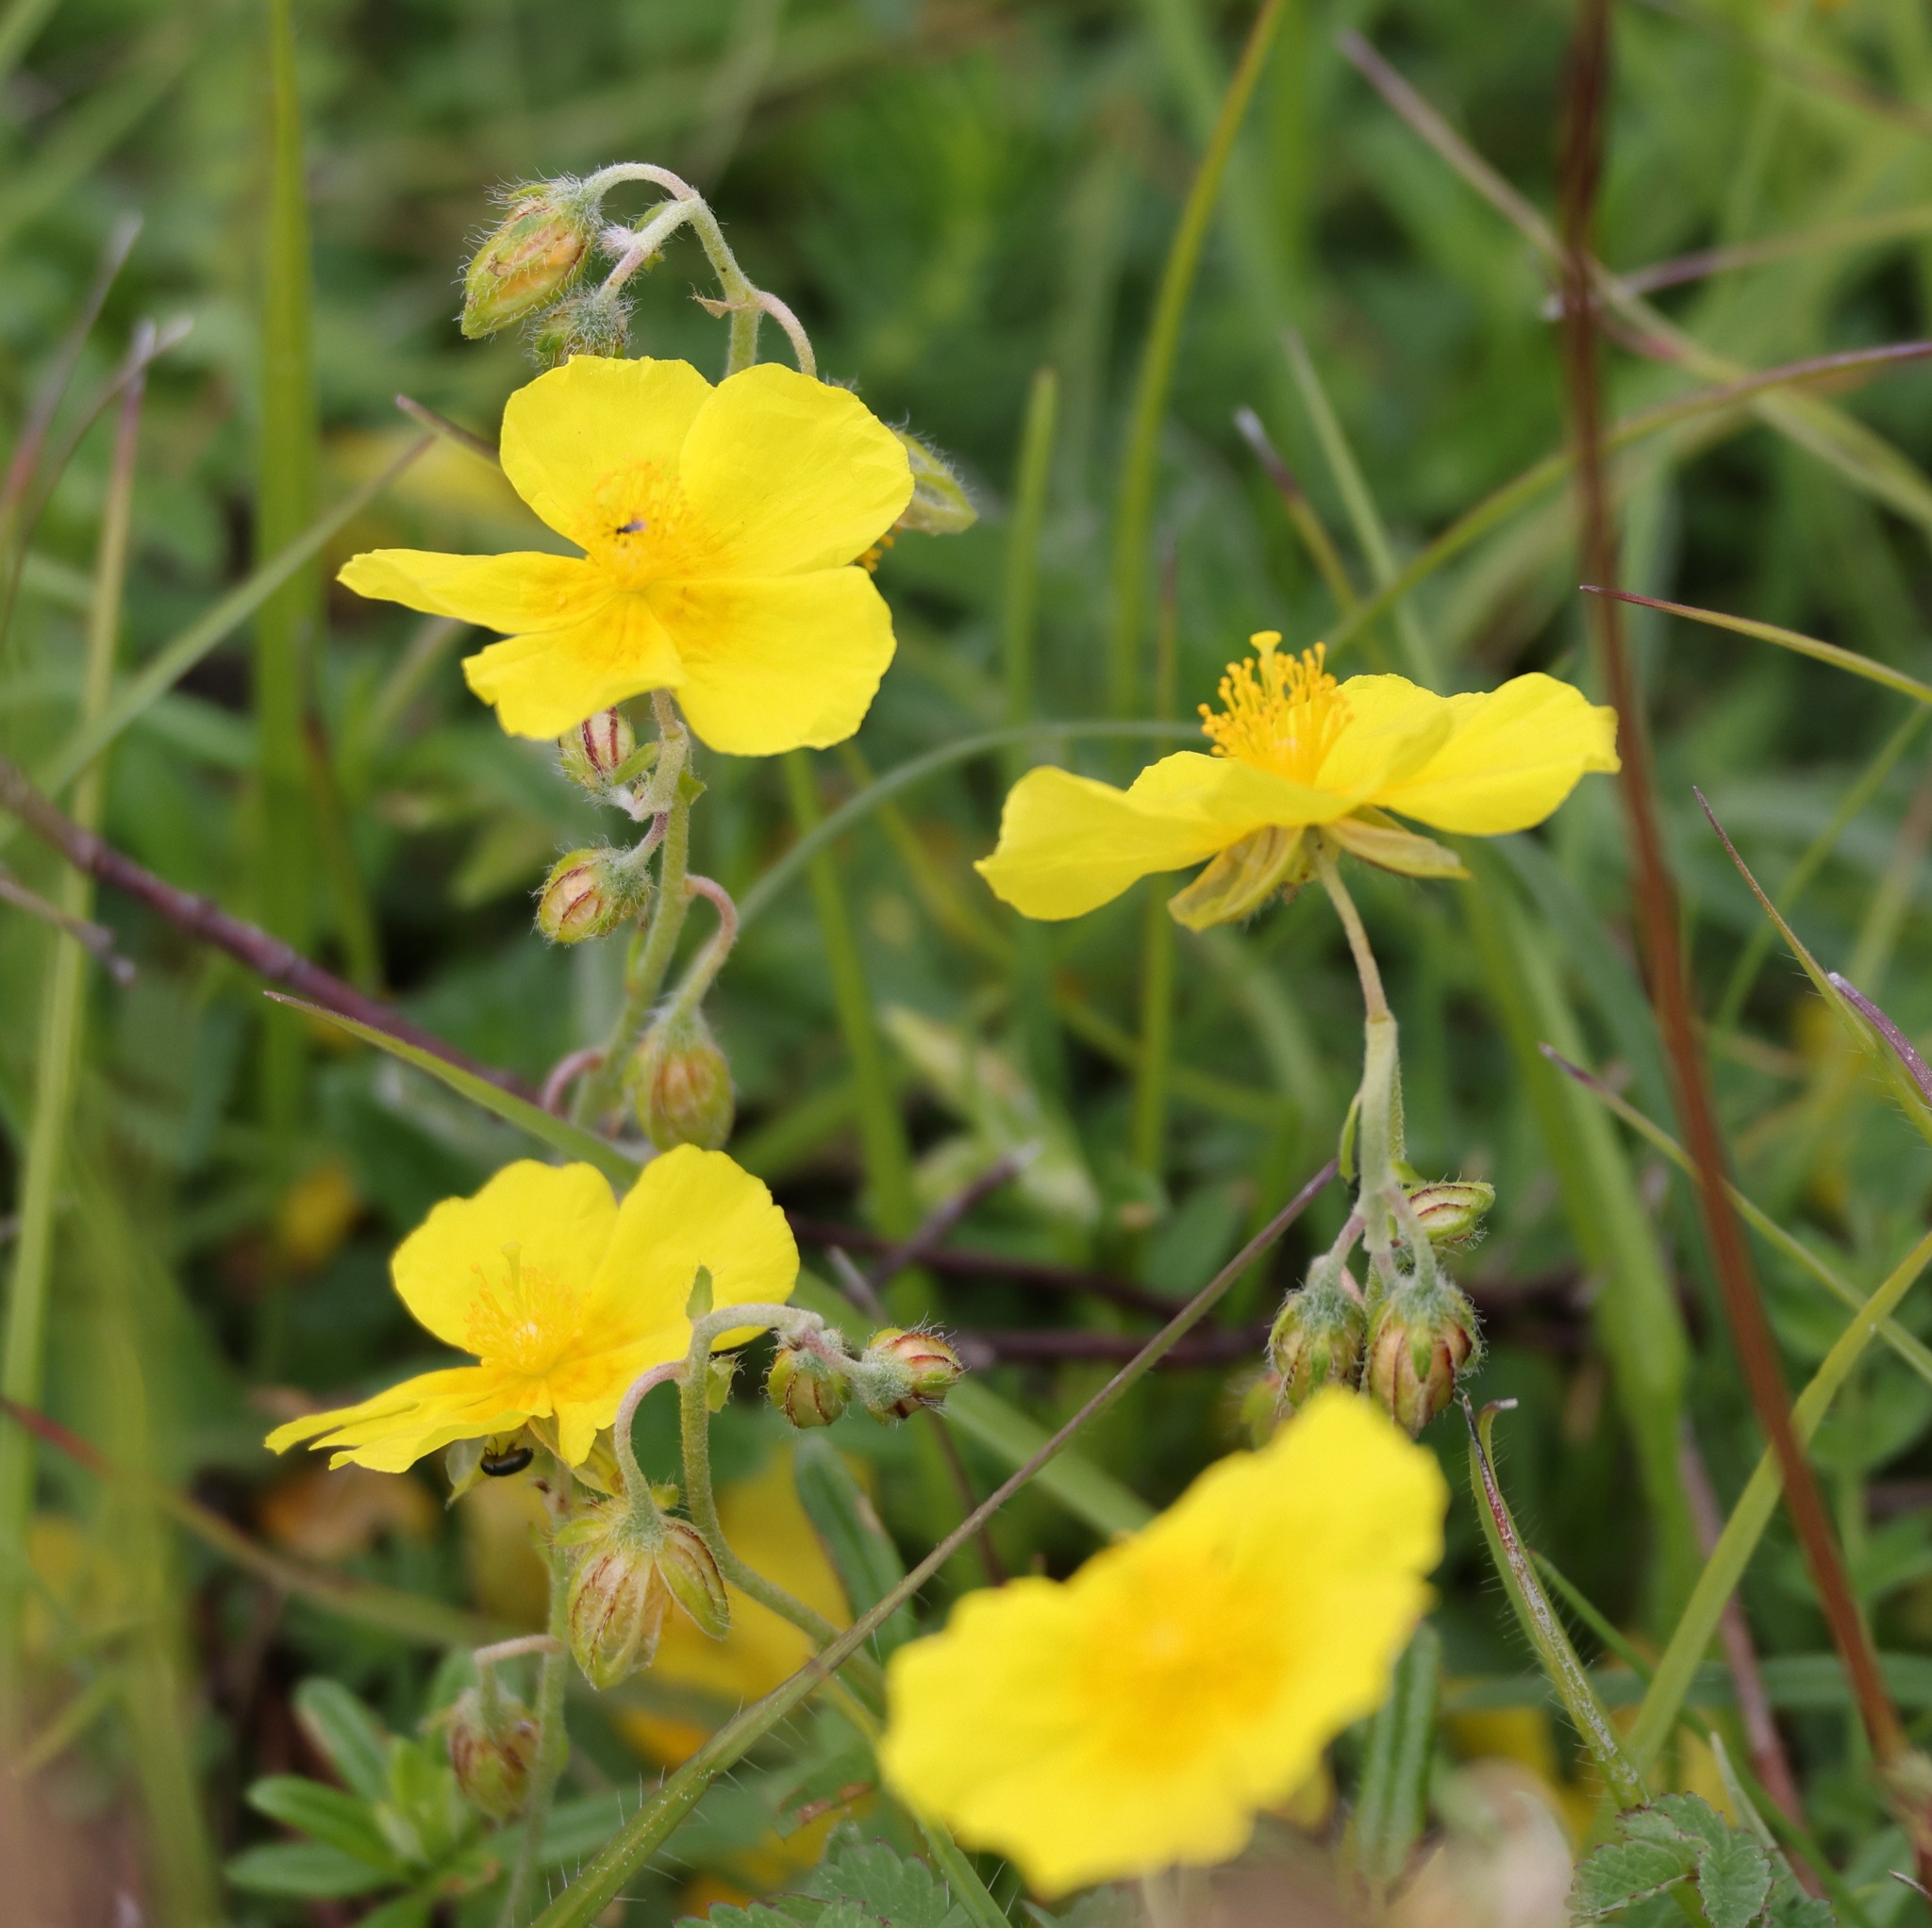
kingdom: Plantae
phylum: Tracheophyta
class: Magnoliopsida
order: Malvales
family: Cistaceae
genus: Helianthemum
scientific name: Helianthemum nummularium
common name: Common rock-rose
